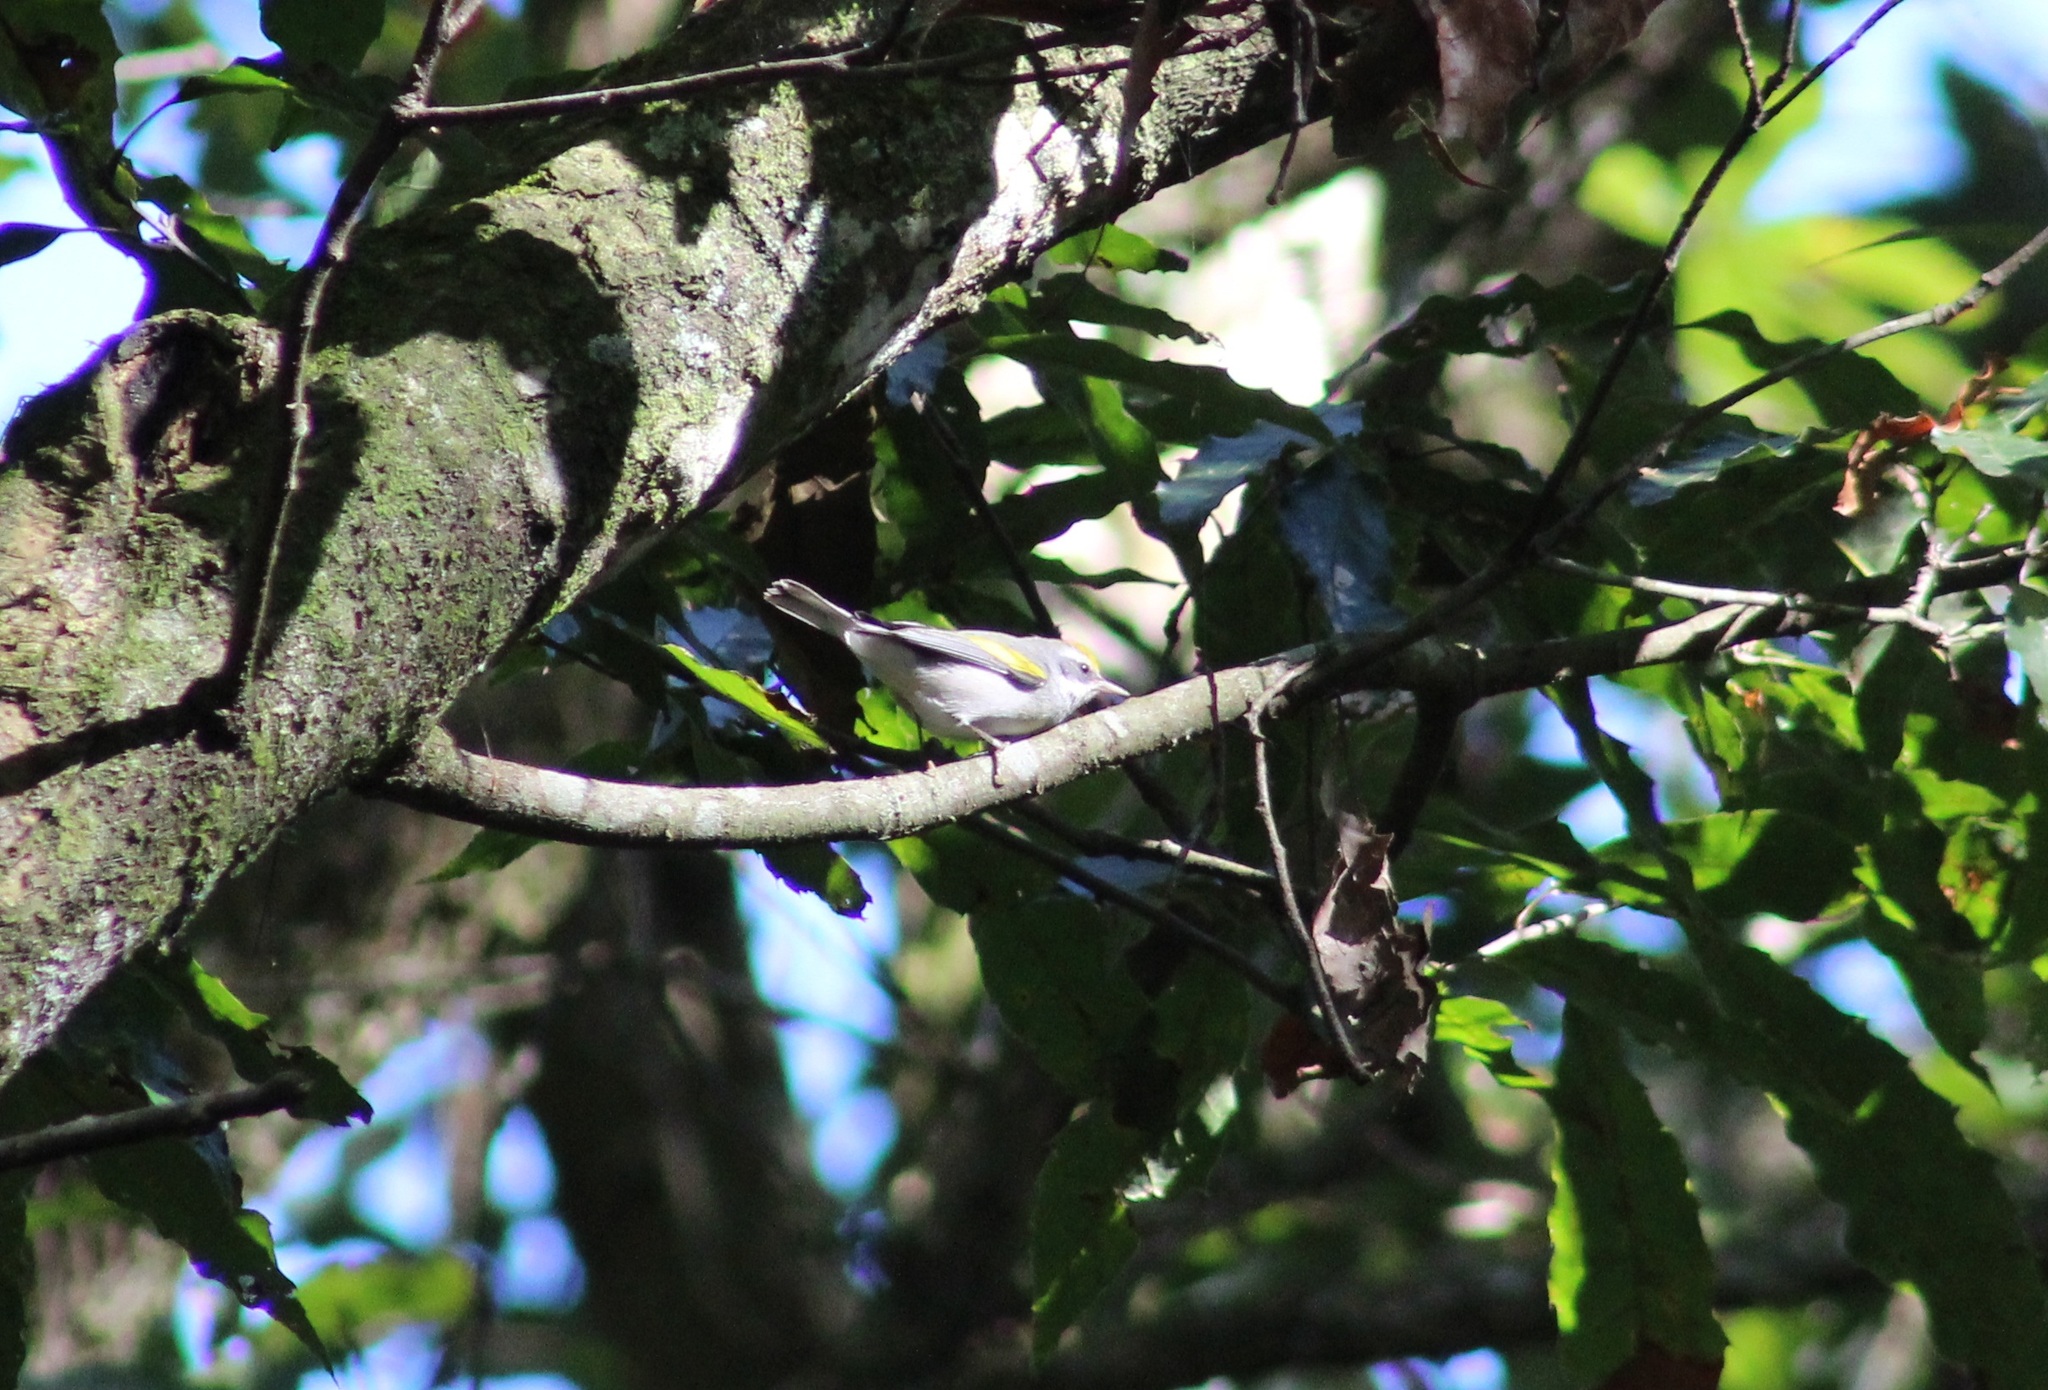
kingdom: Animalia
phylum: Chordata
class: Aves
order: Passeriformes
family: Parulidae
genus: Vermivora
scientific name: Vermivora chrysoptera
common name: Golden-winged warbler
